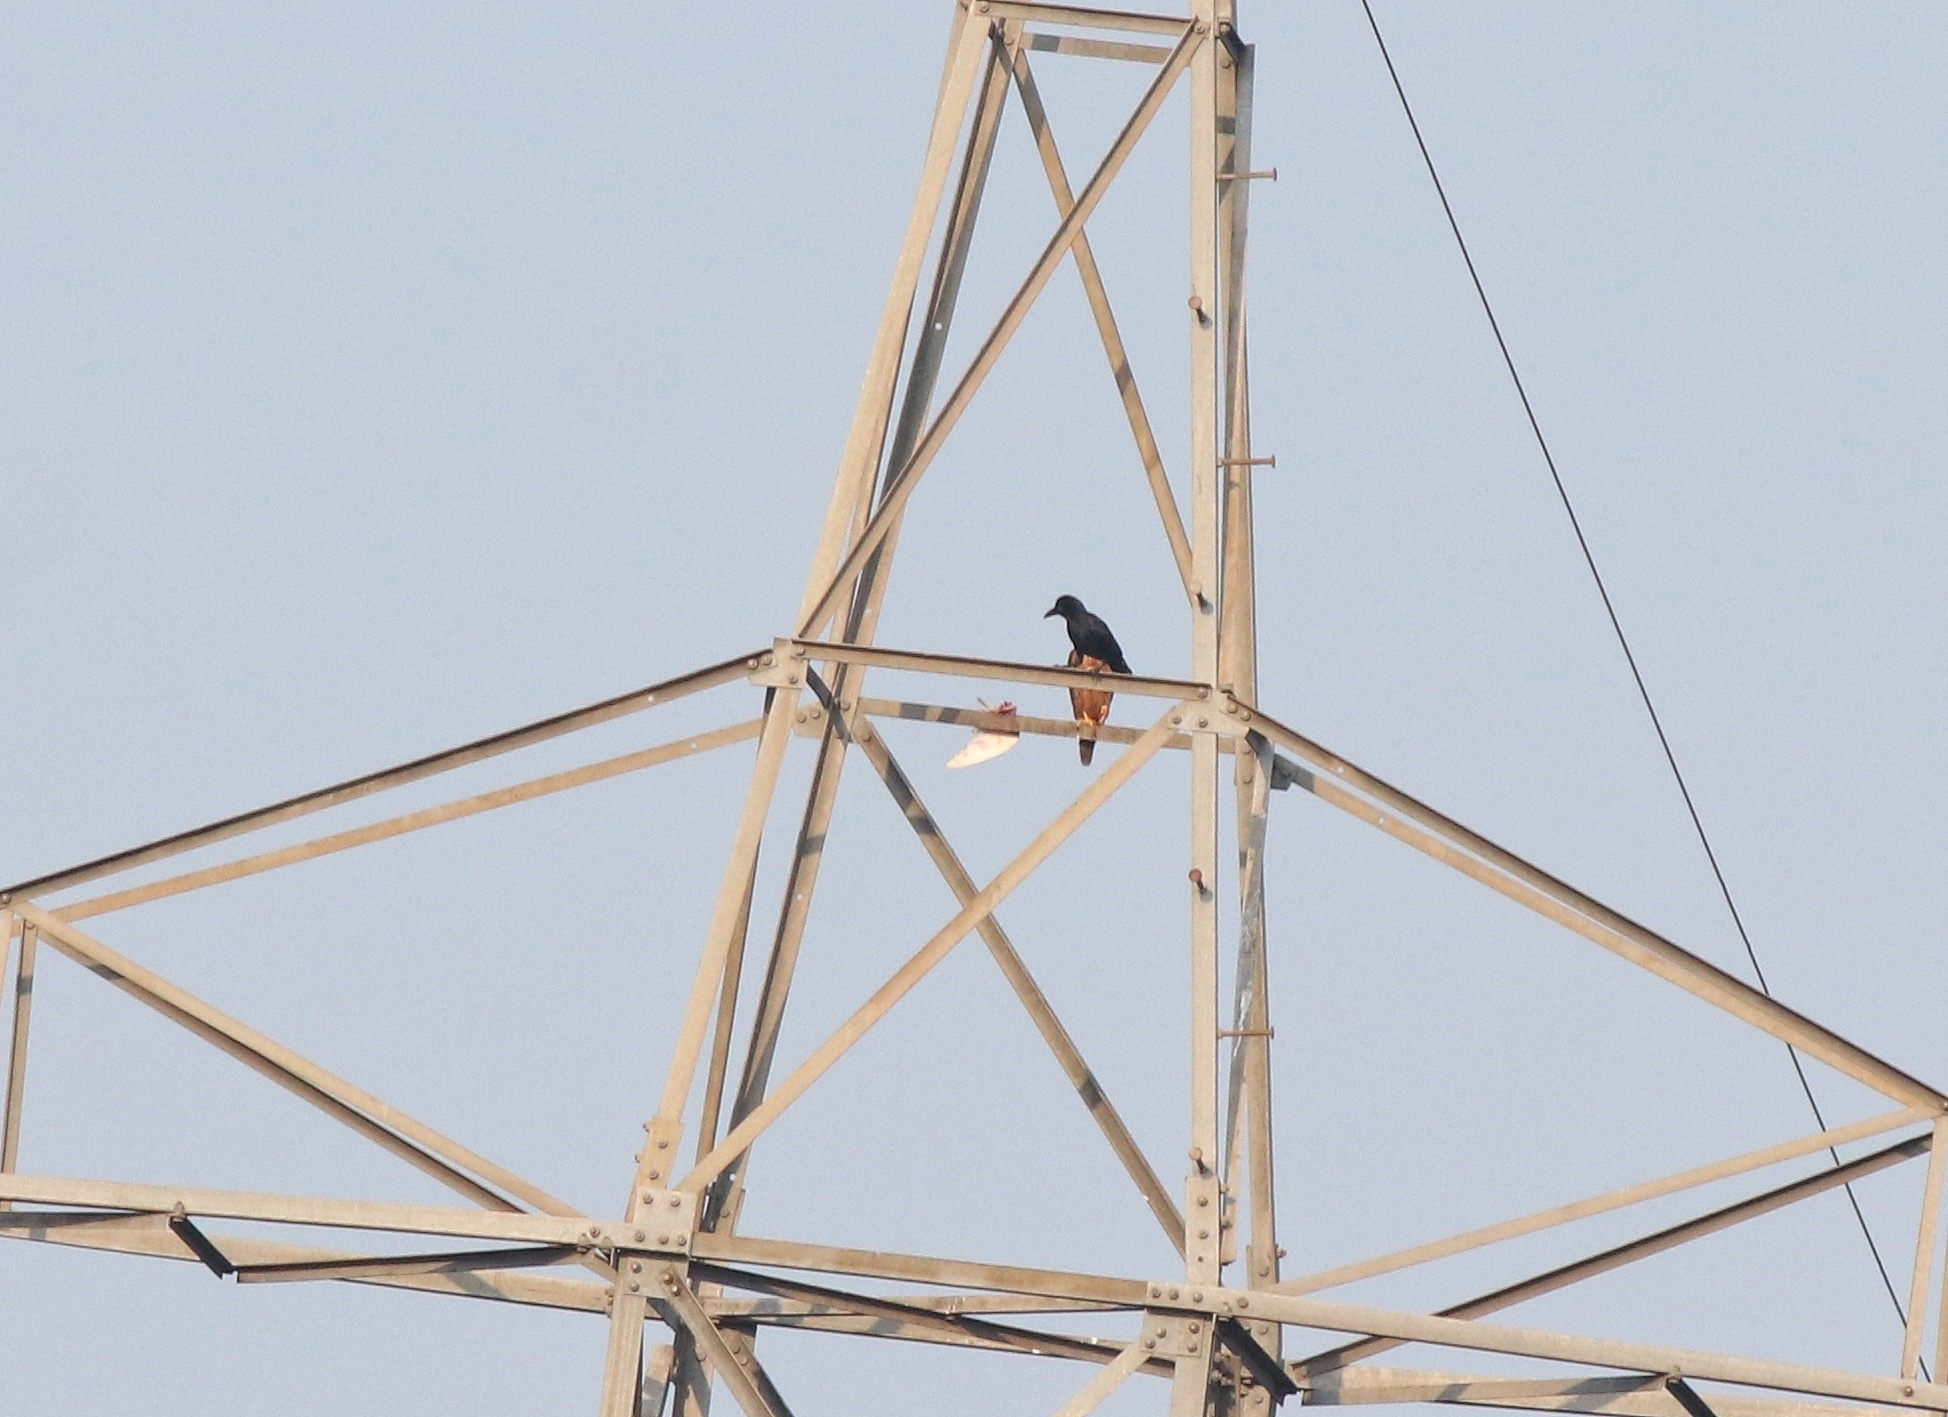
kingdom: Animalia
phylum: Chordata
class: Aves
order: Passeriformes
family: Corvidae
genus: Corvus
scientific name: Corvus macrorhynchos
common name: Large-billed crow
